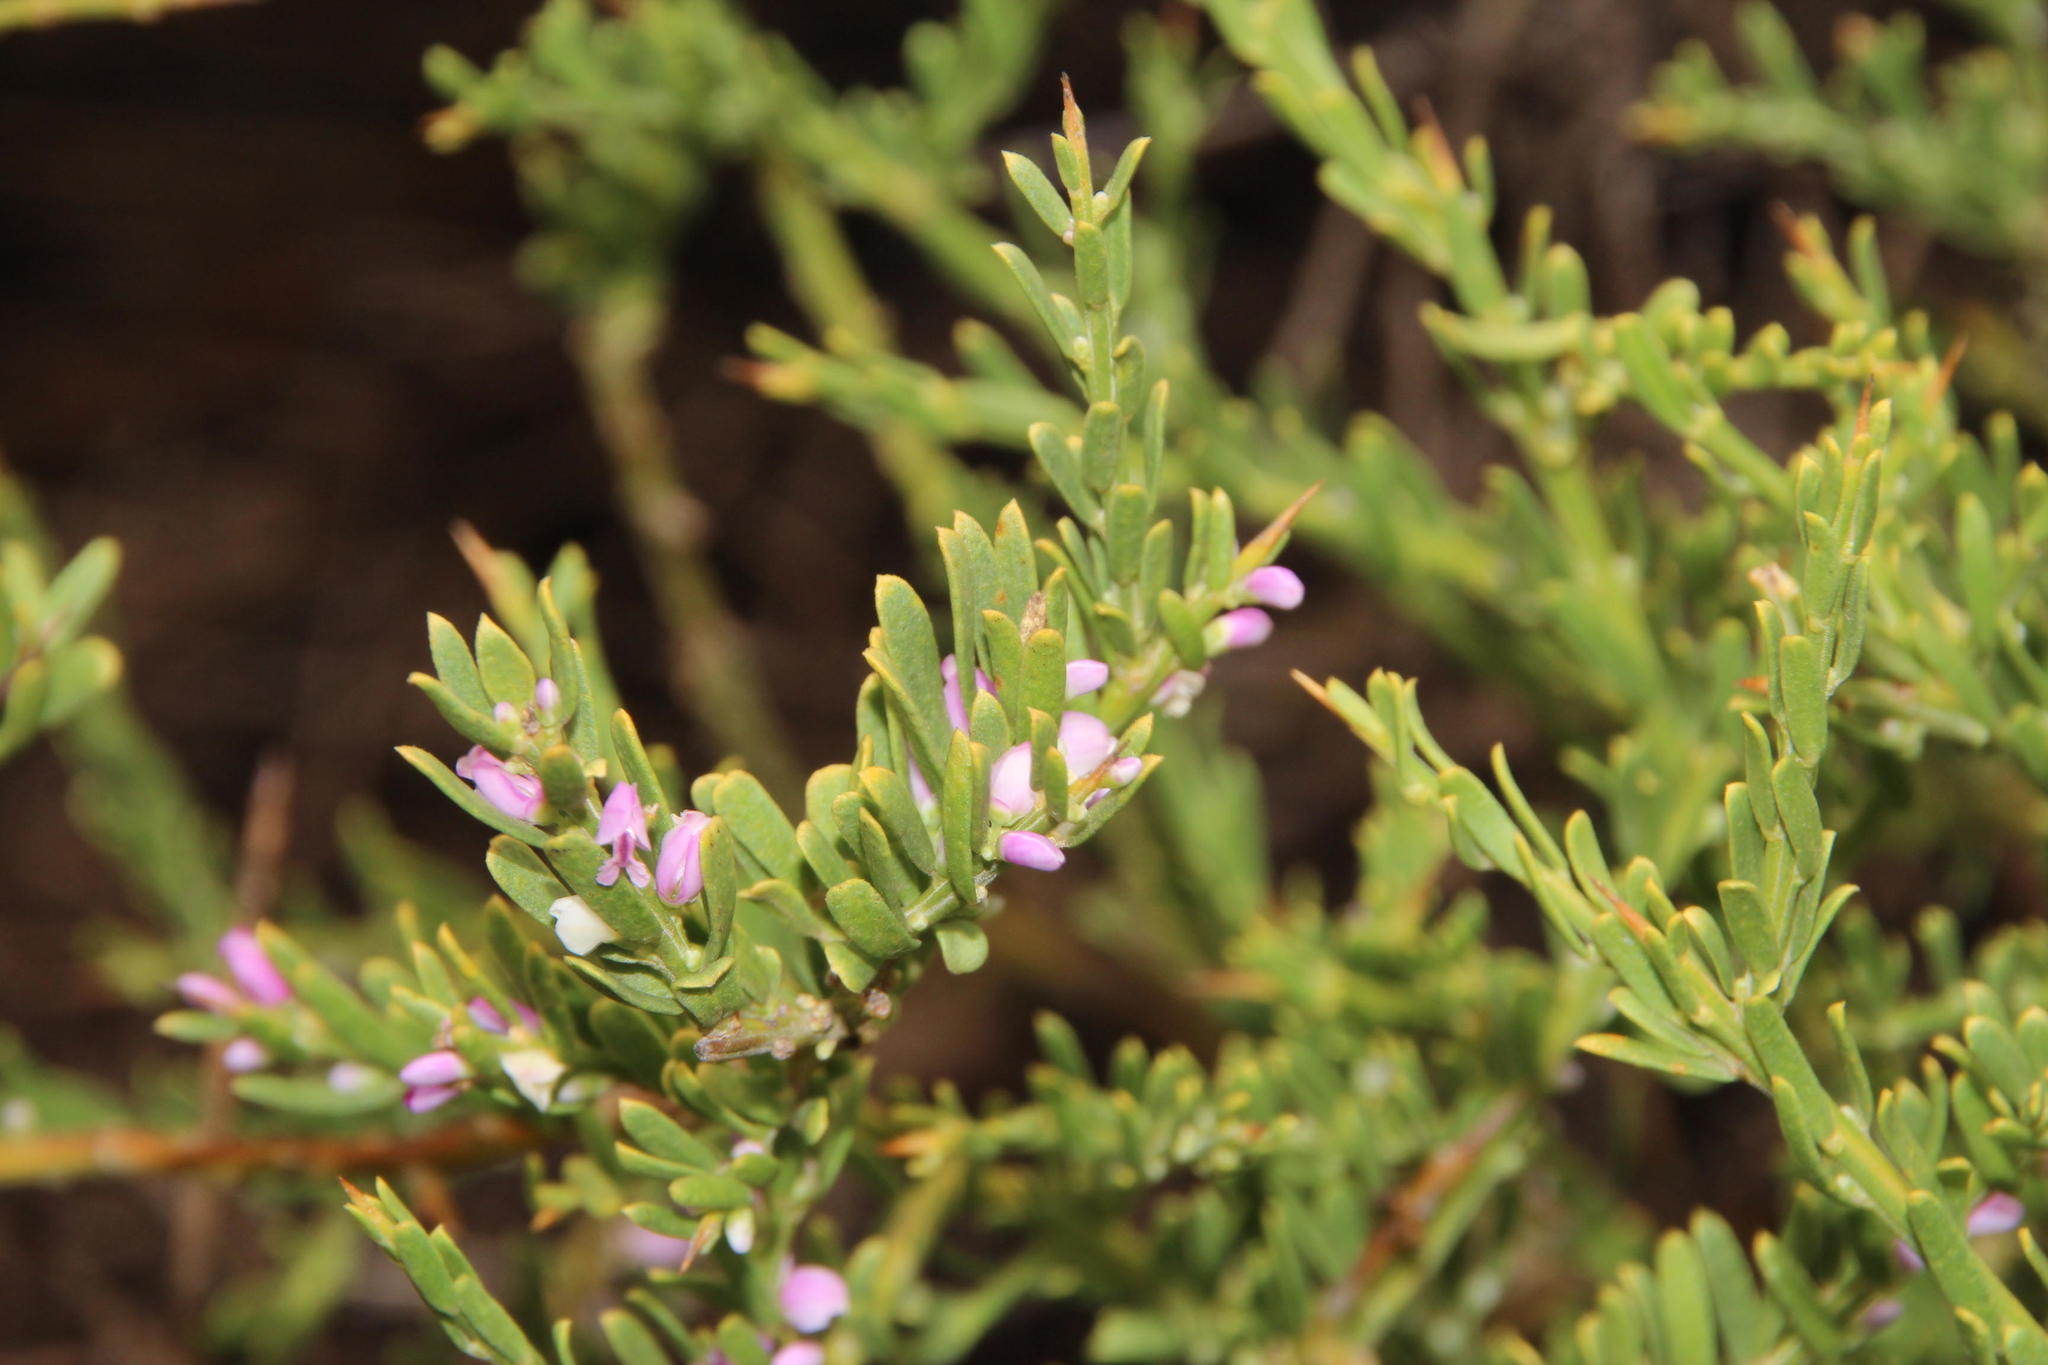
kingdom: Plantae
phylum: Tracheophyta
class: Magnoliopsida
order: Fabales
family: Polygalaceae
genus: Muraltia
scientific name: Muraltia spinosa
